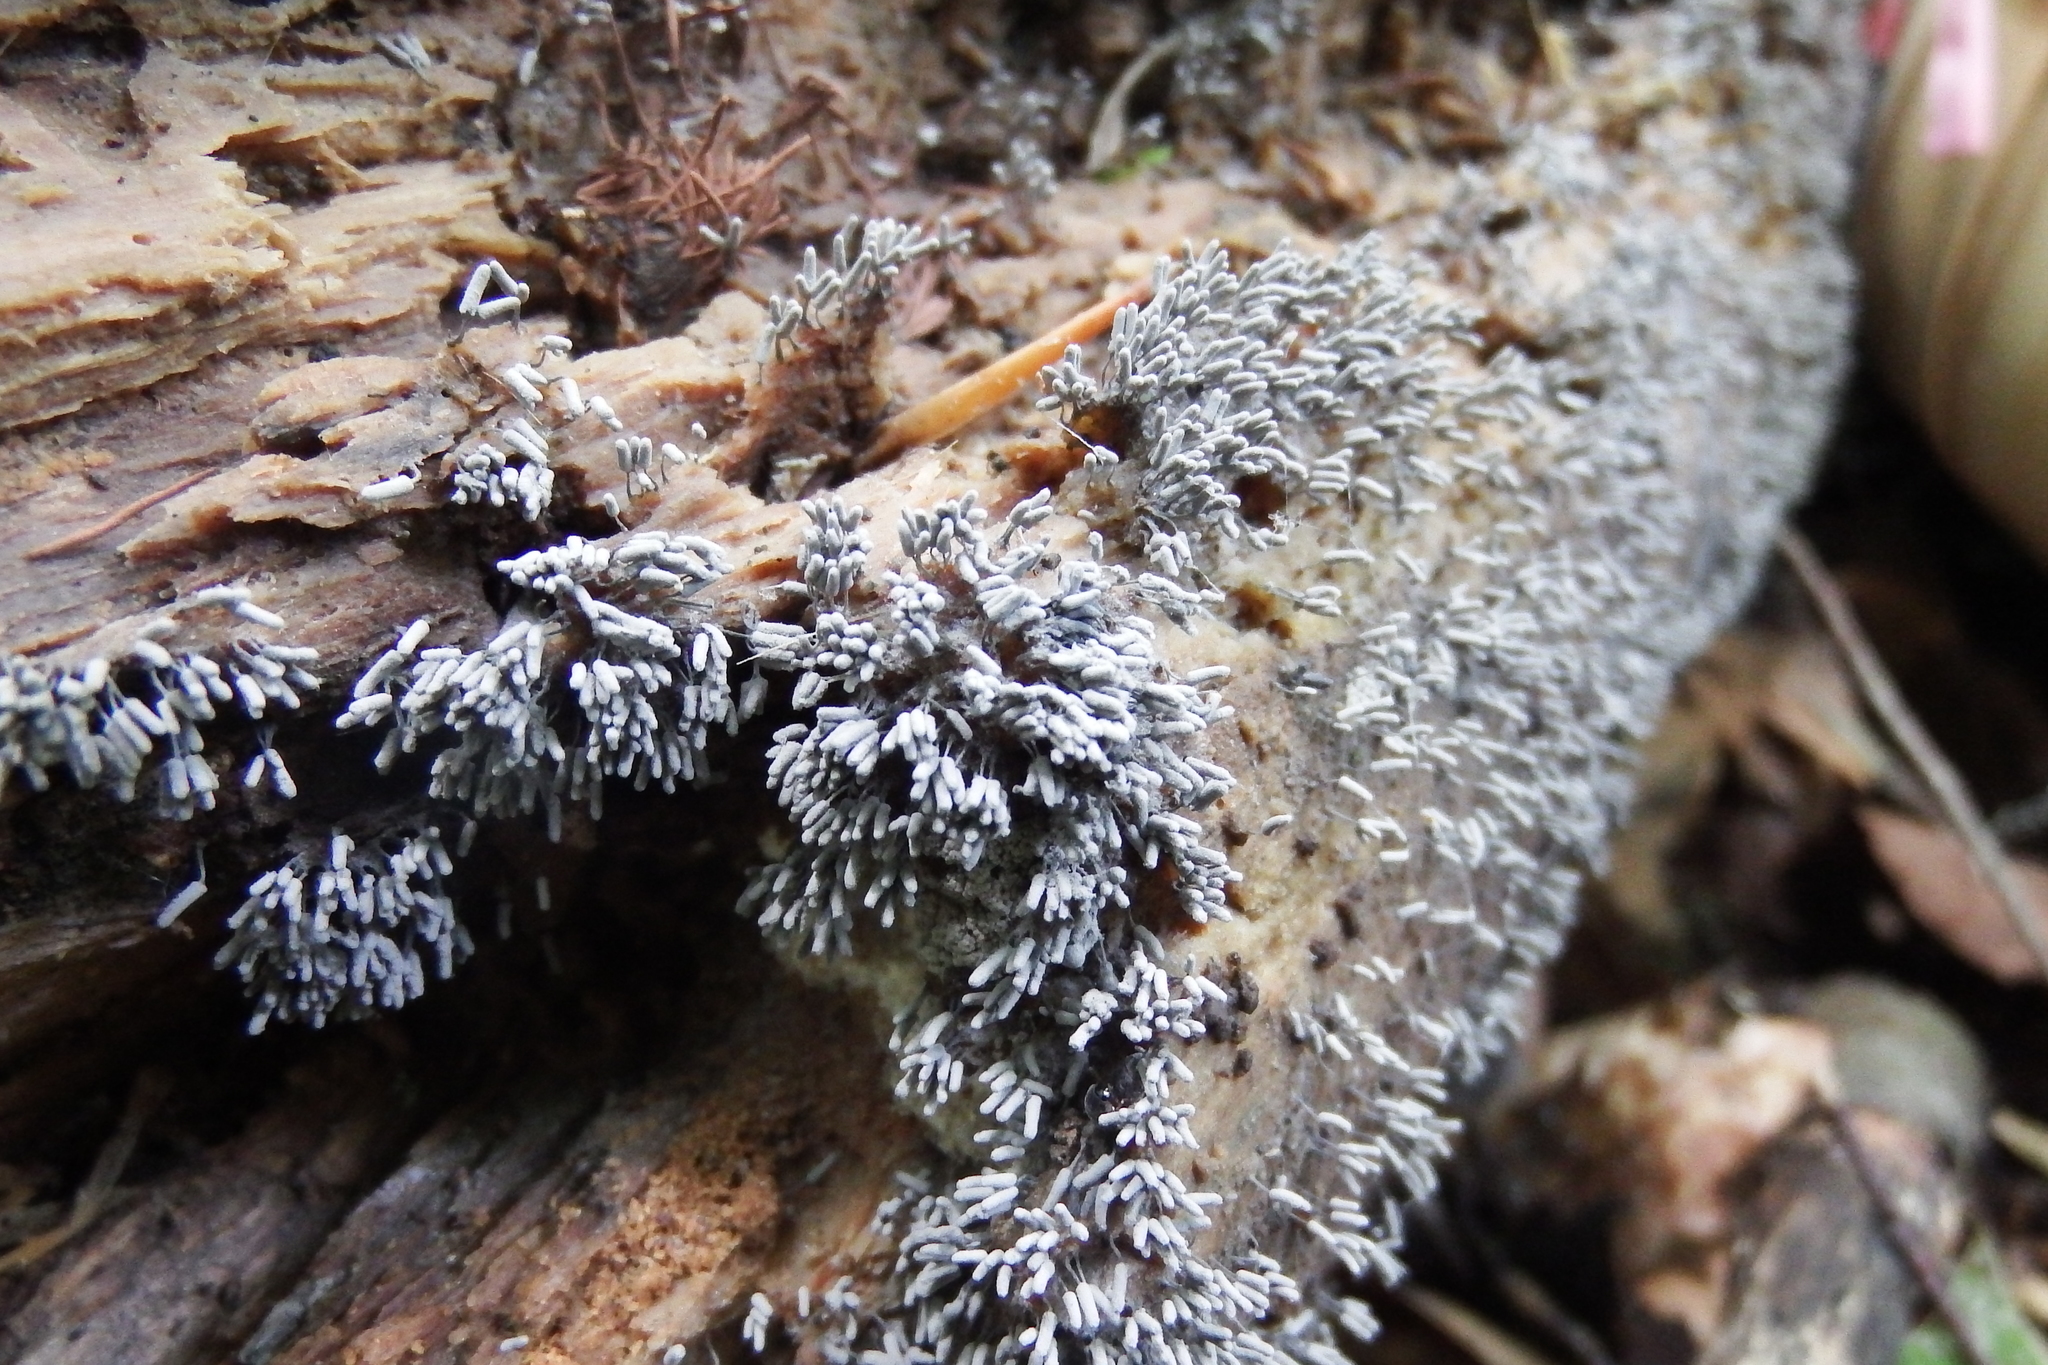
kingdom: Protozoa
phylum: Mycetozoa
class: Myxomycetes
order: Trichiales
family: Arcyriaceae
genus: Arcyria
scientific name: Arcyria cinerea
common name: White carnival candy slime mold
